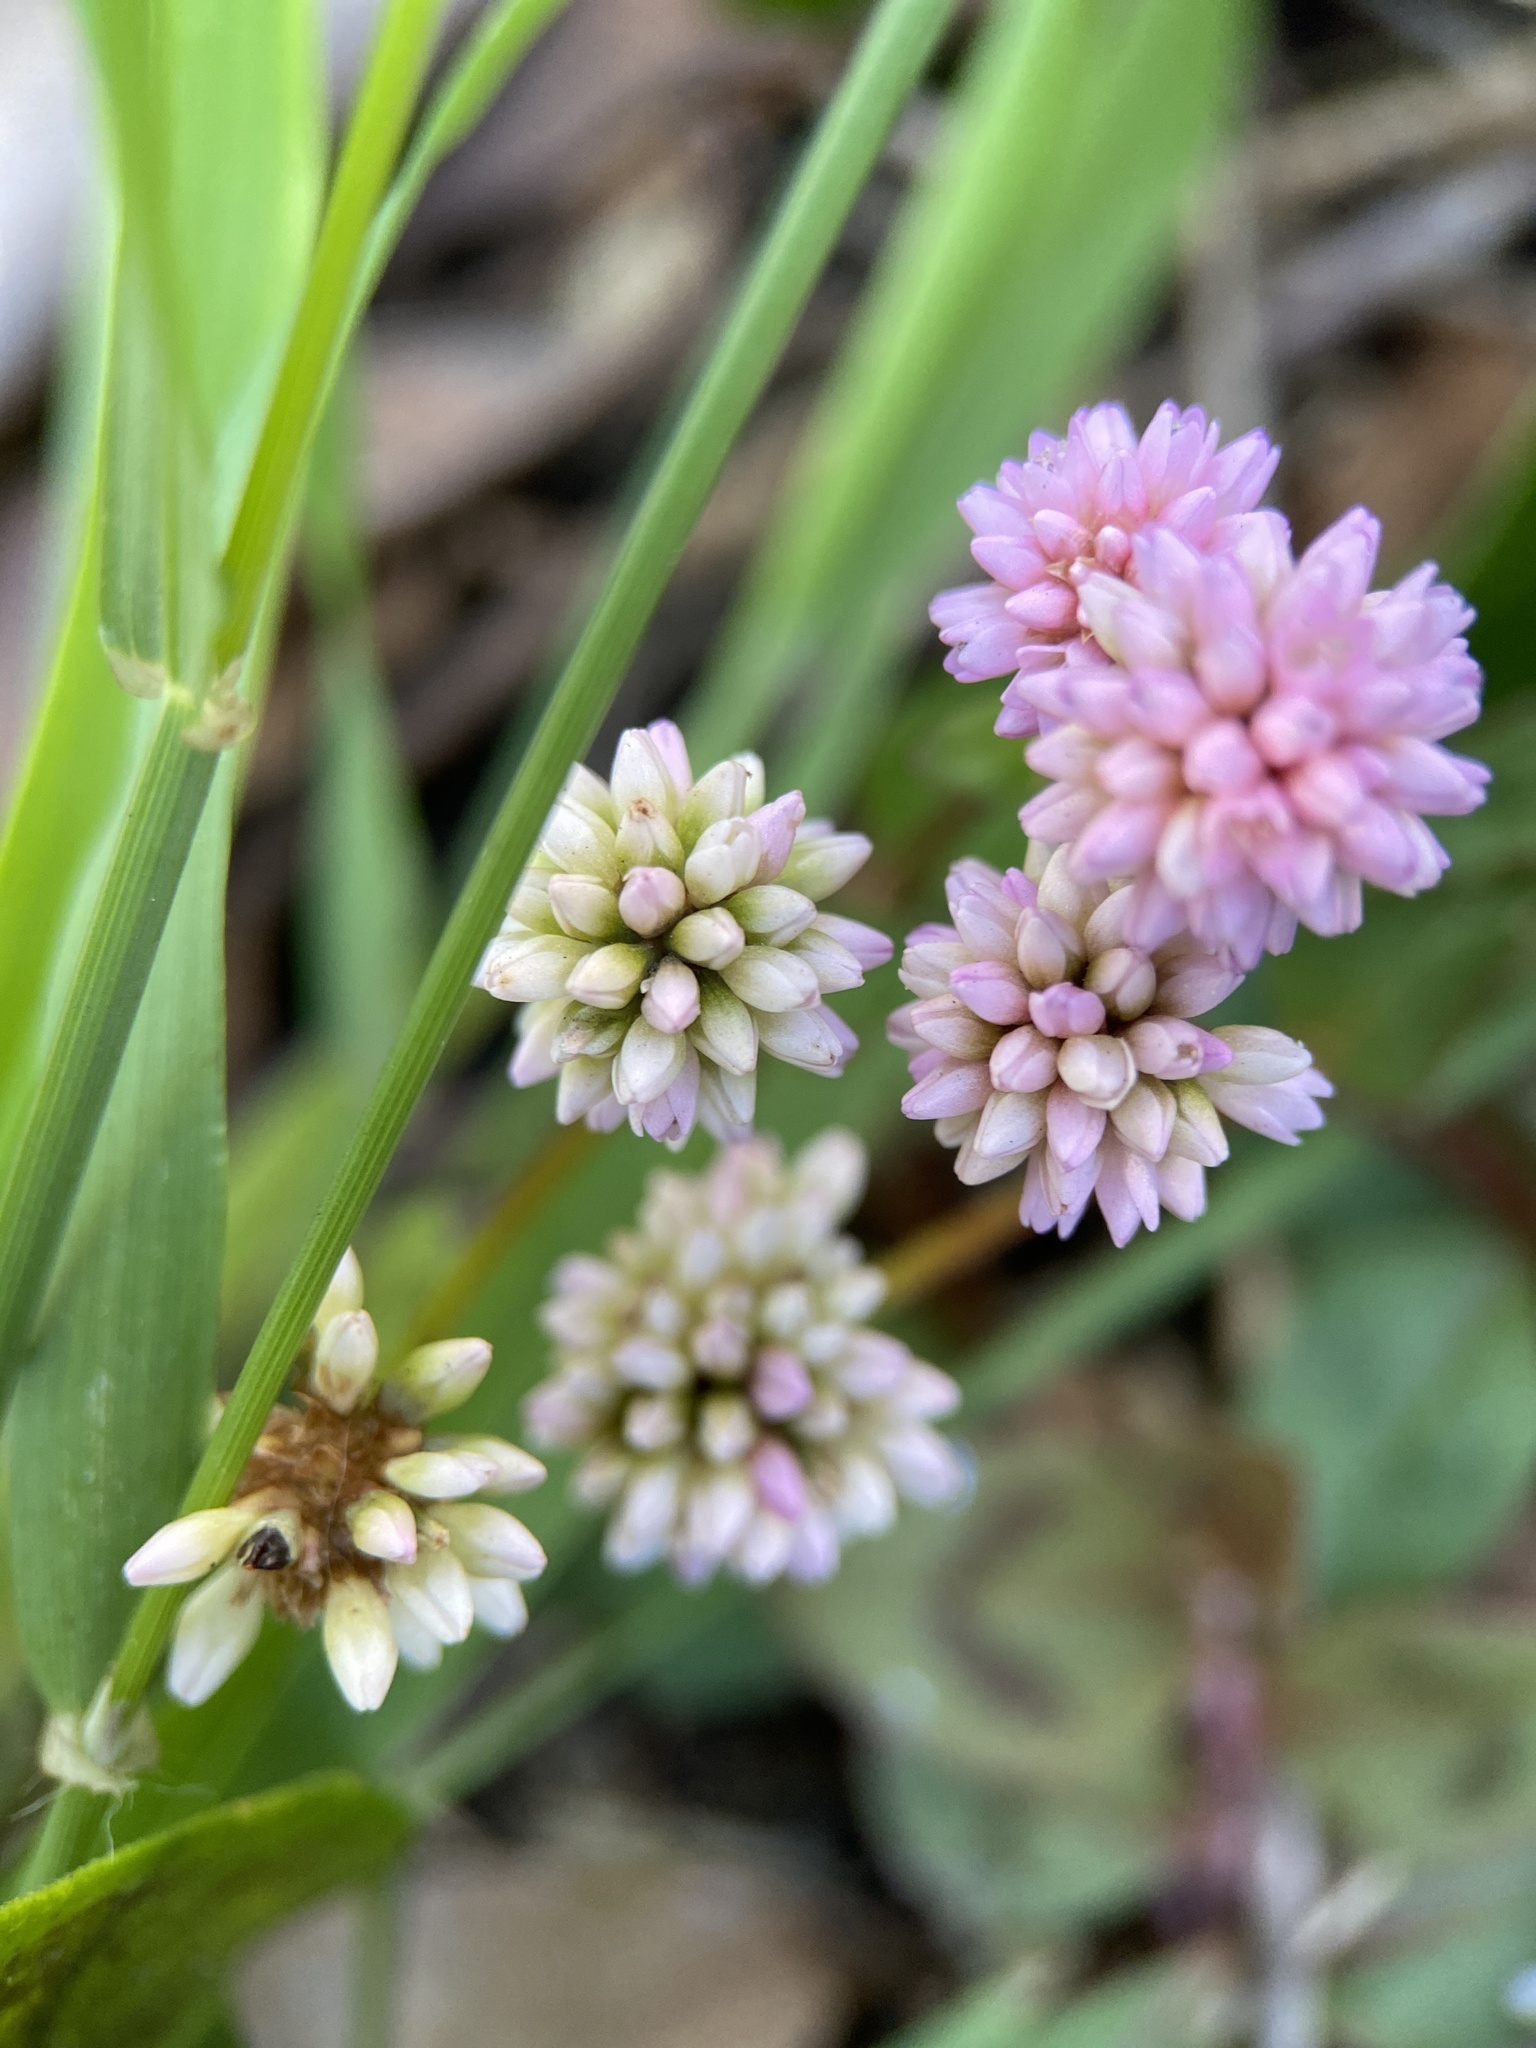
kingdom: Plantae
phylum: Tracheophyta
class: Magnoliopsida
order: Caryophyllales
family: Polygonaceae
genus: Persicaria
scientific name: Persicaria capitata
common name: Pinkhead smartweed
